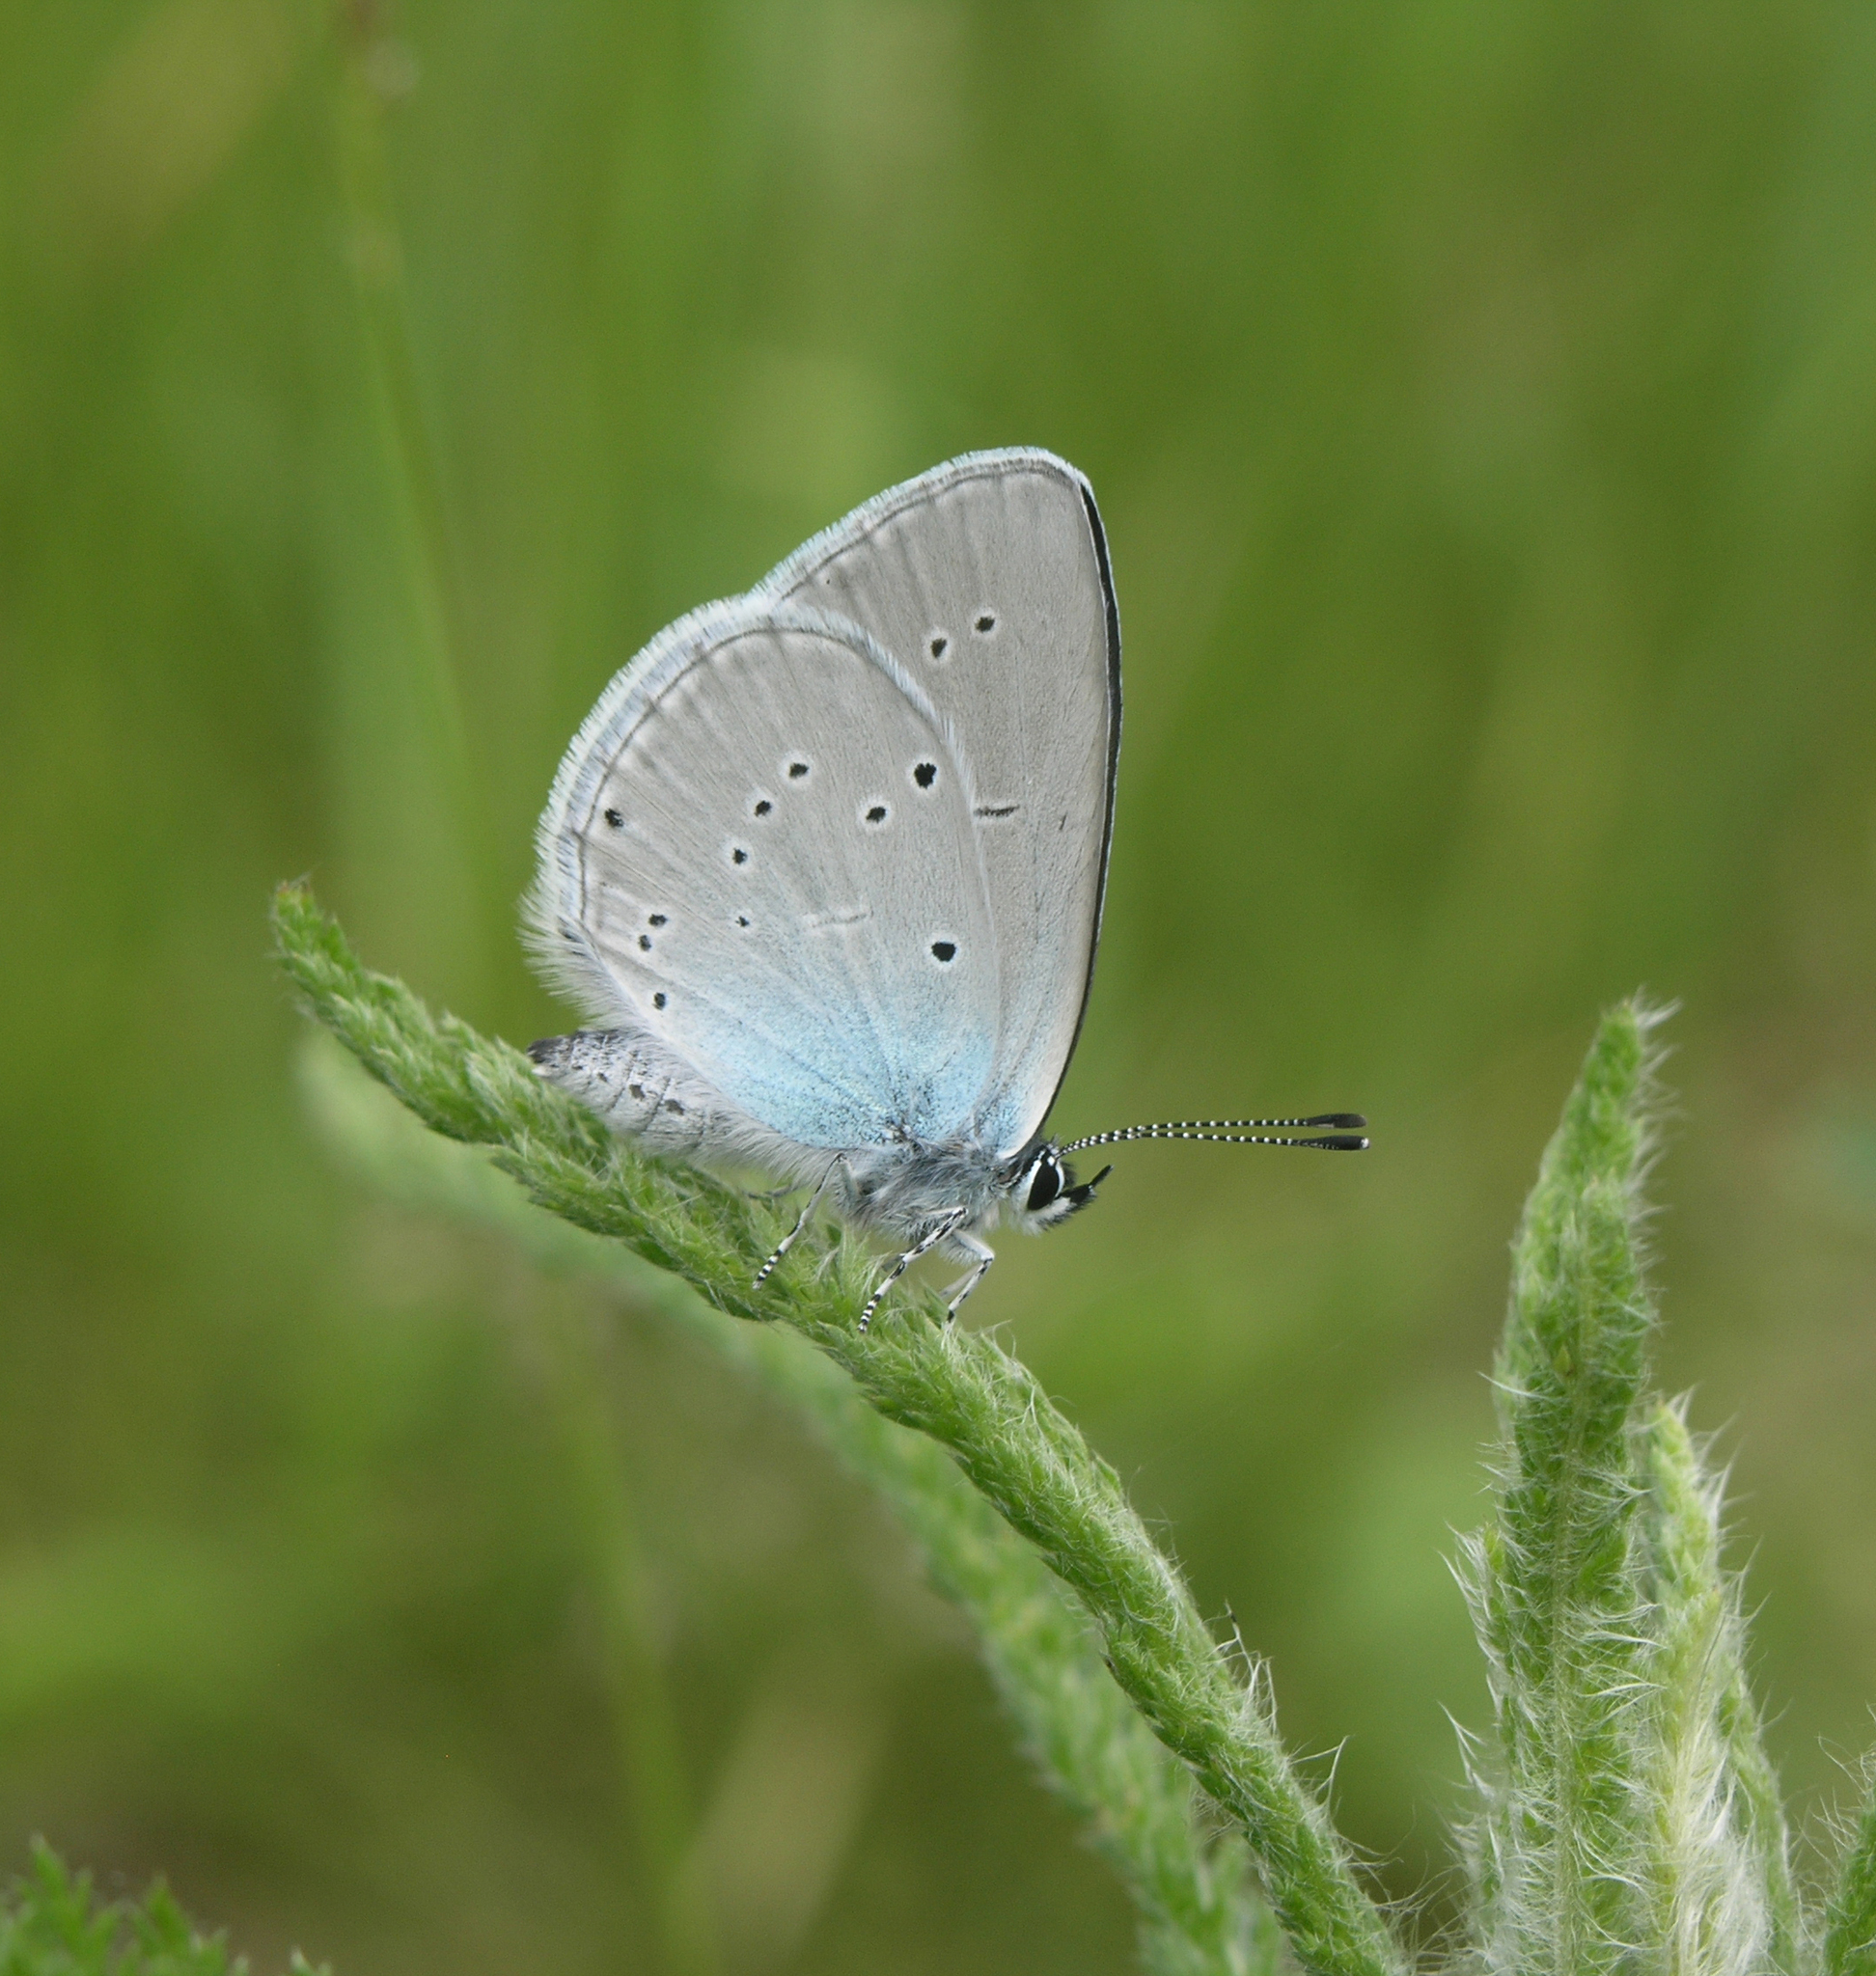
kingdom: Animalia
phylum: Arthropoda
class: Insecta
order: Lepidoptera
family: Lycaenidae
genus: Everes
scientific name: Everes sebrus
